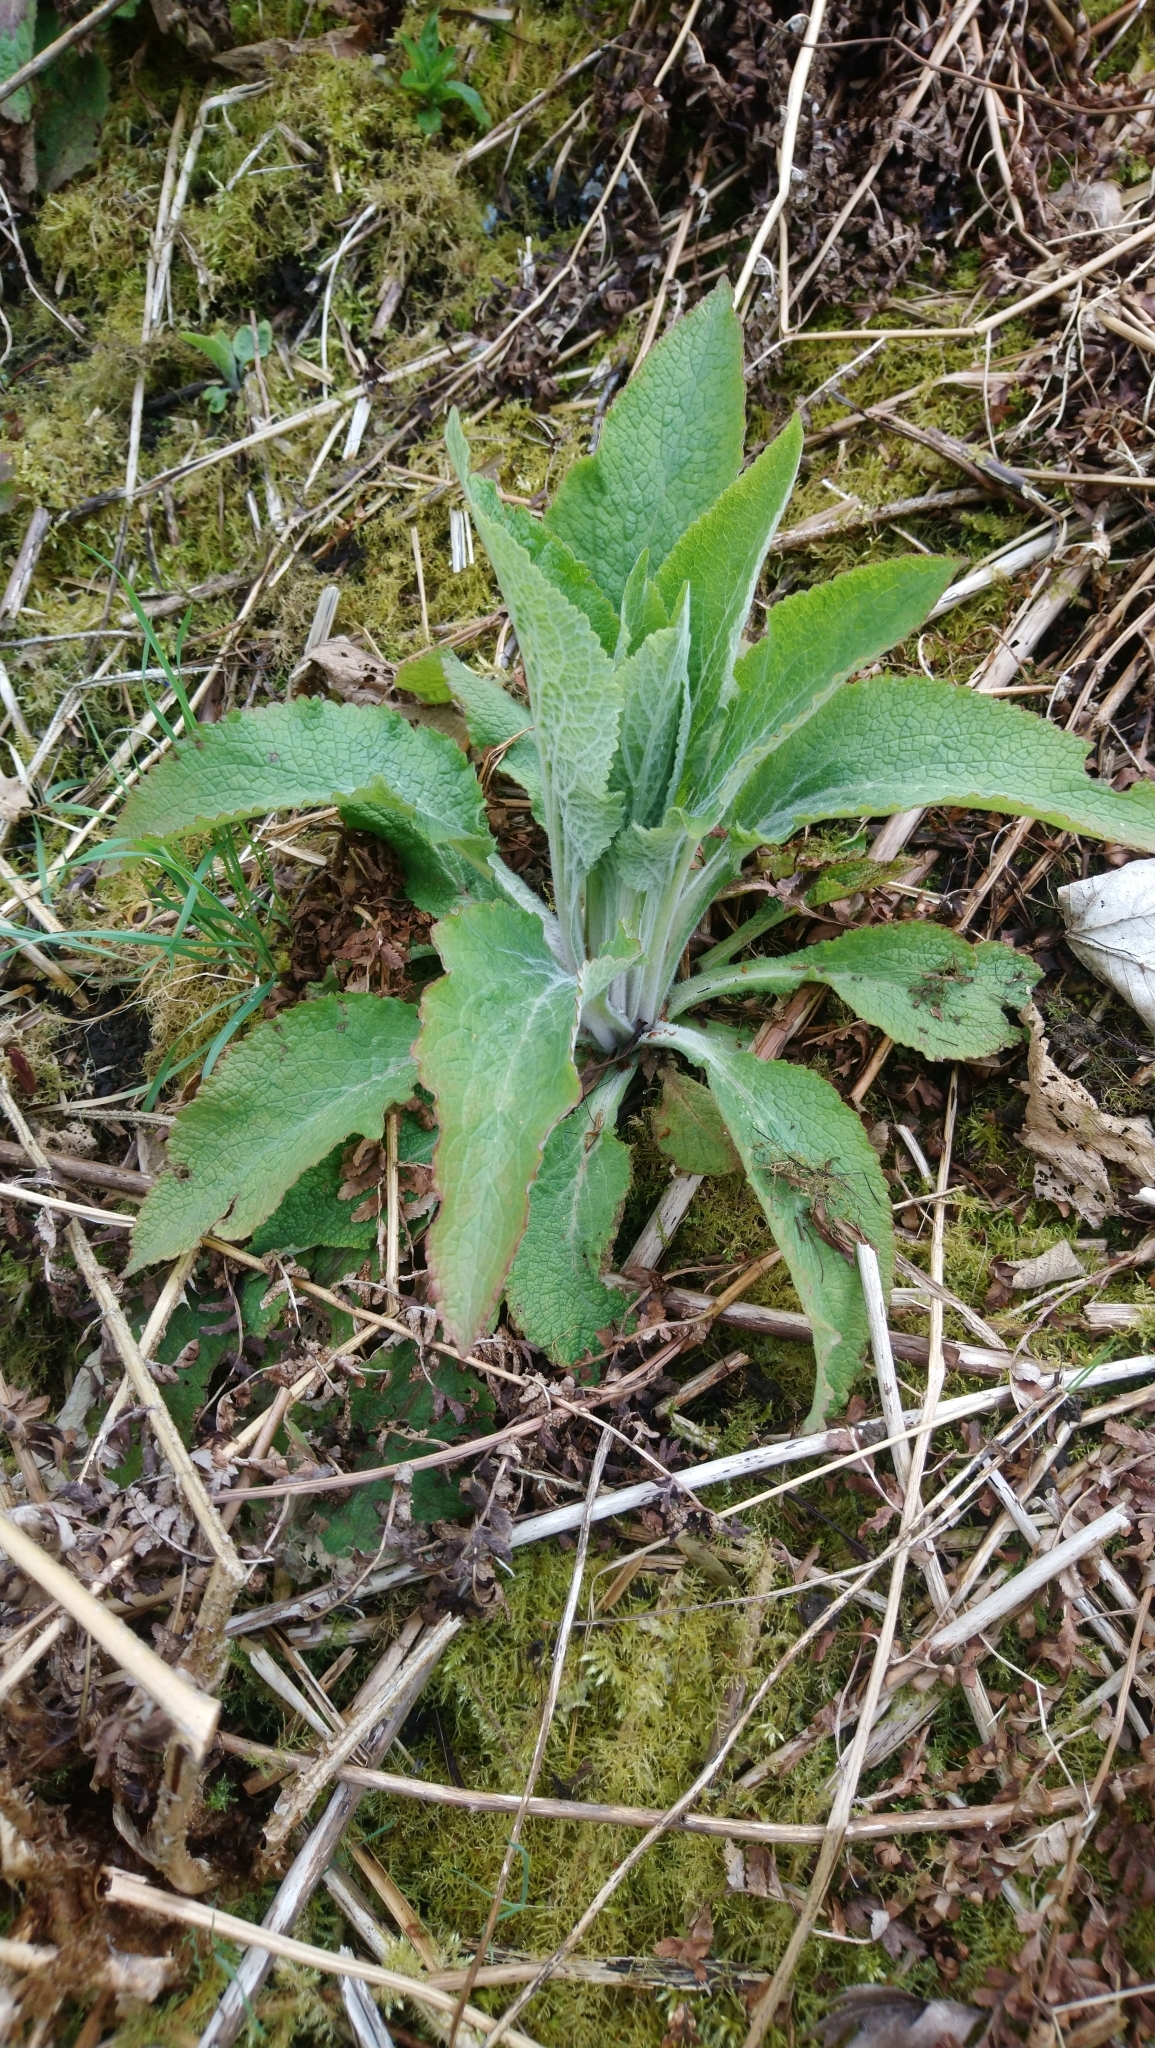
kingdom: Plantae
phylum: Tracheophyta
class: Magnoliopsida
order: Lamiales
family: Plantaginaceae
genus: Digitalis
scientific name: Digitalis purpurea
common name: Foxglove
